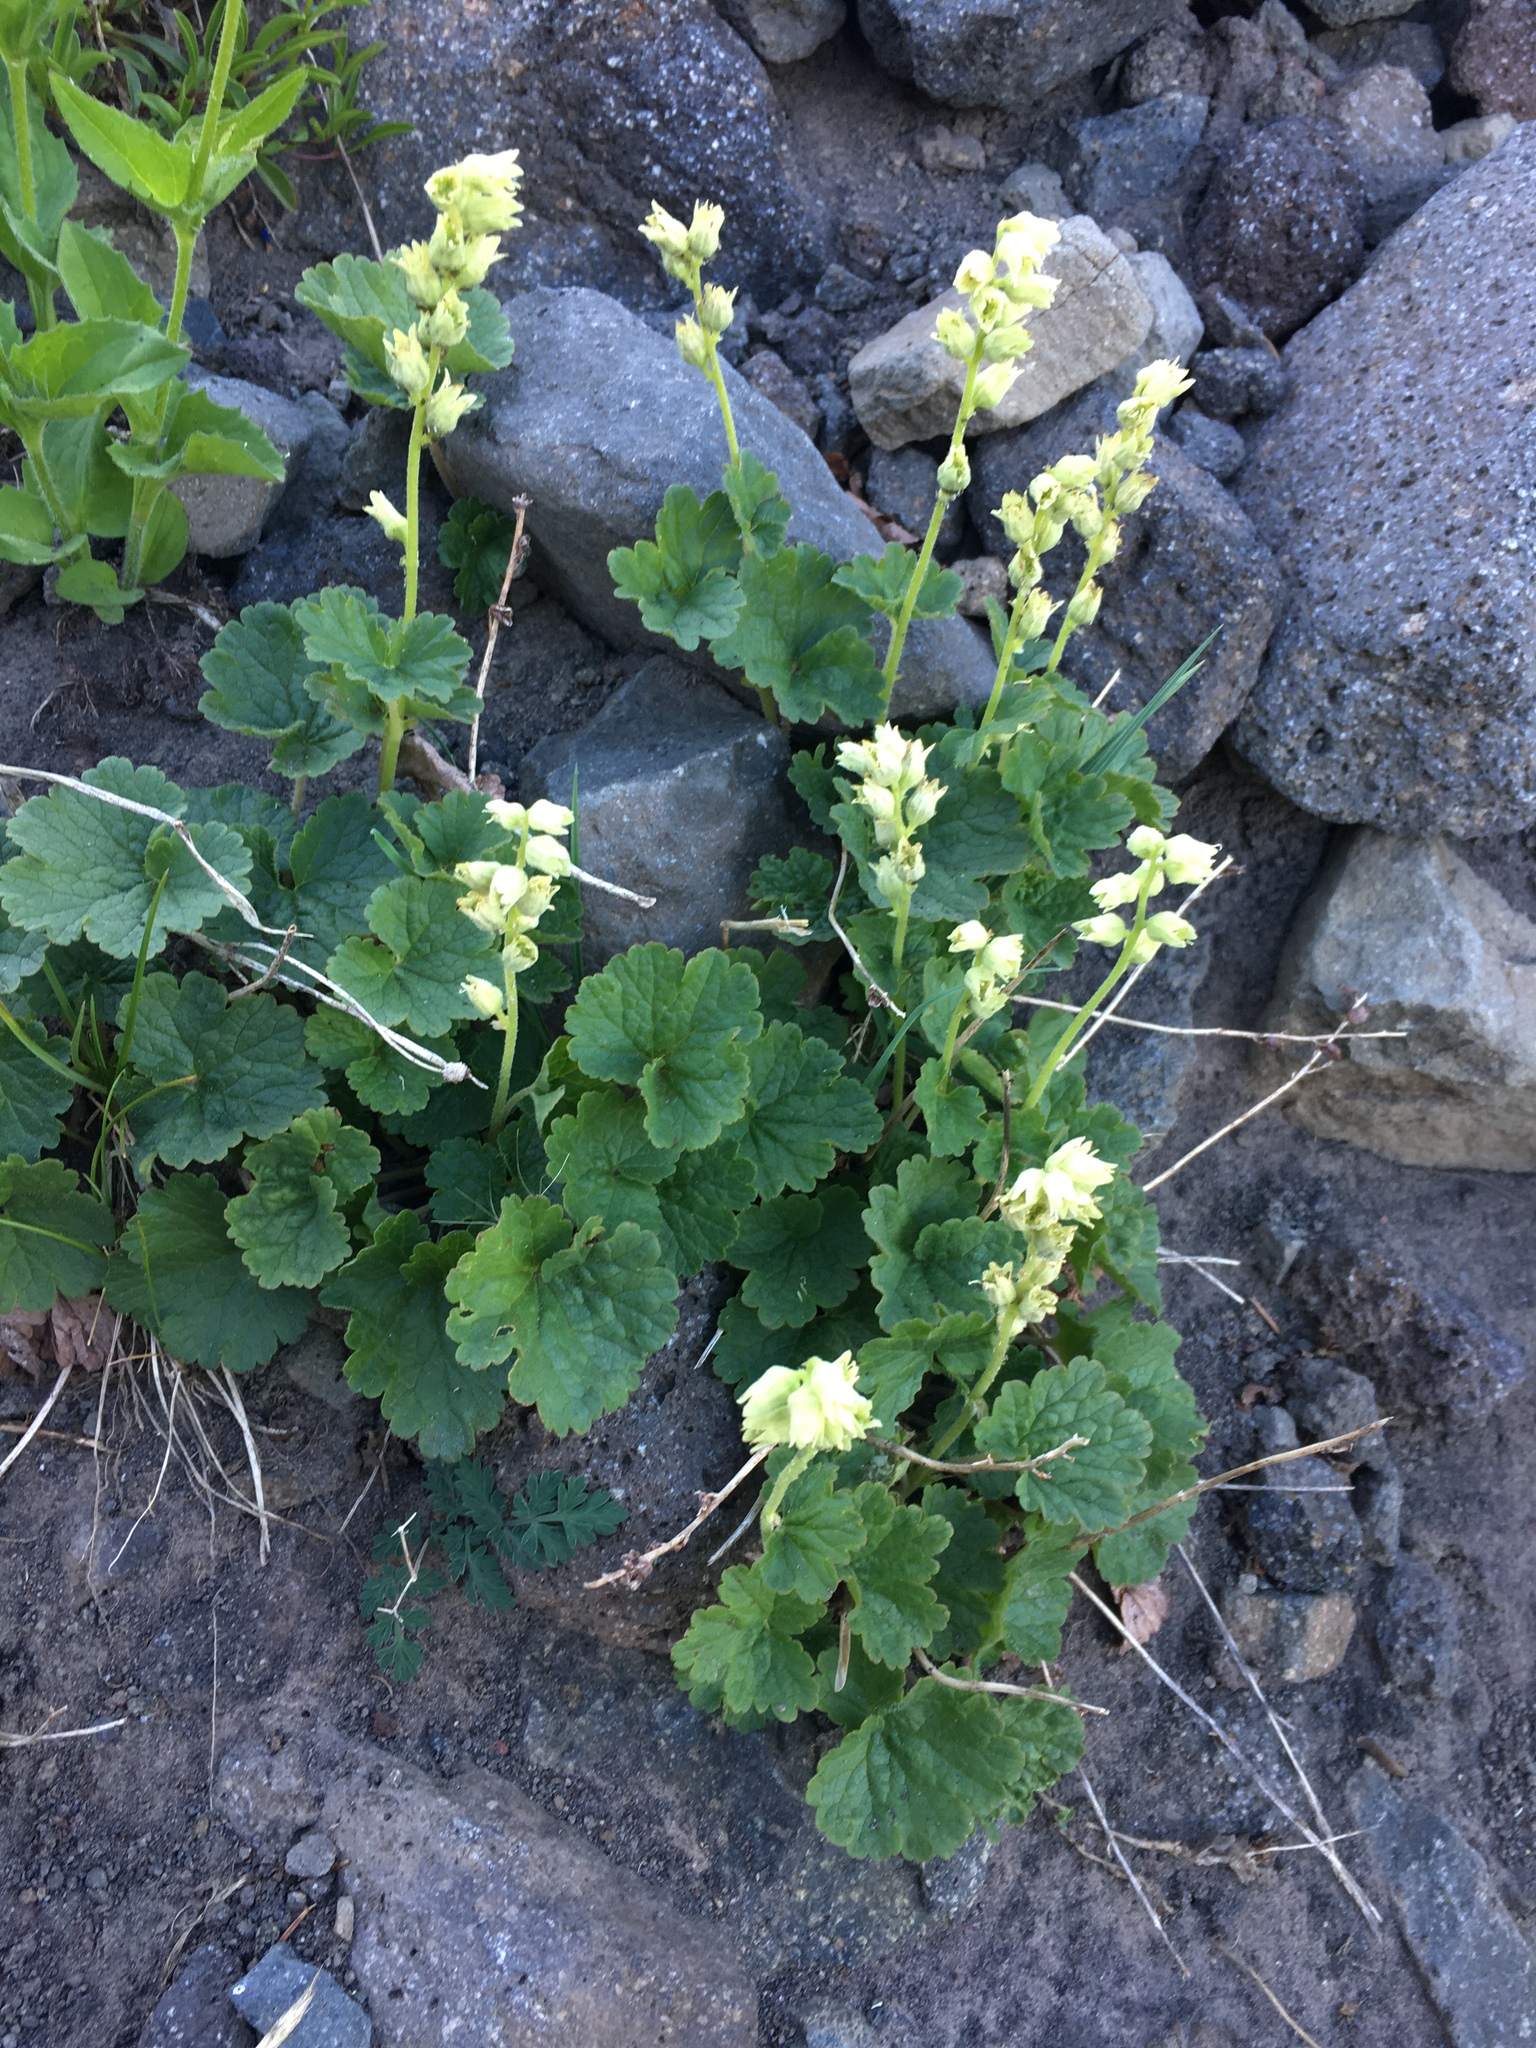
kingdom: Plantae
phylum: Tracheophyta
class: Magnoliopsida
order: Saxifragales
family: Saxifragaceae
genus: Elmera
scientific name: Elmera racemosa
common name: Elmera
